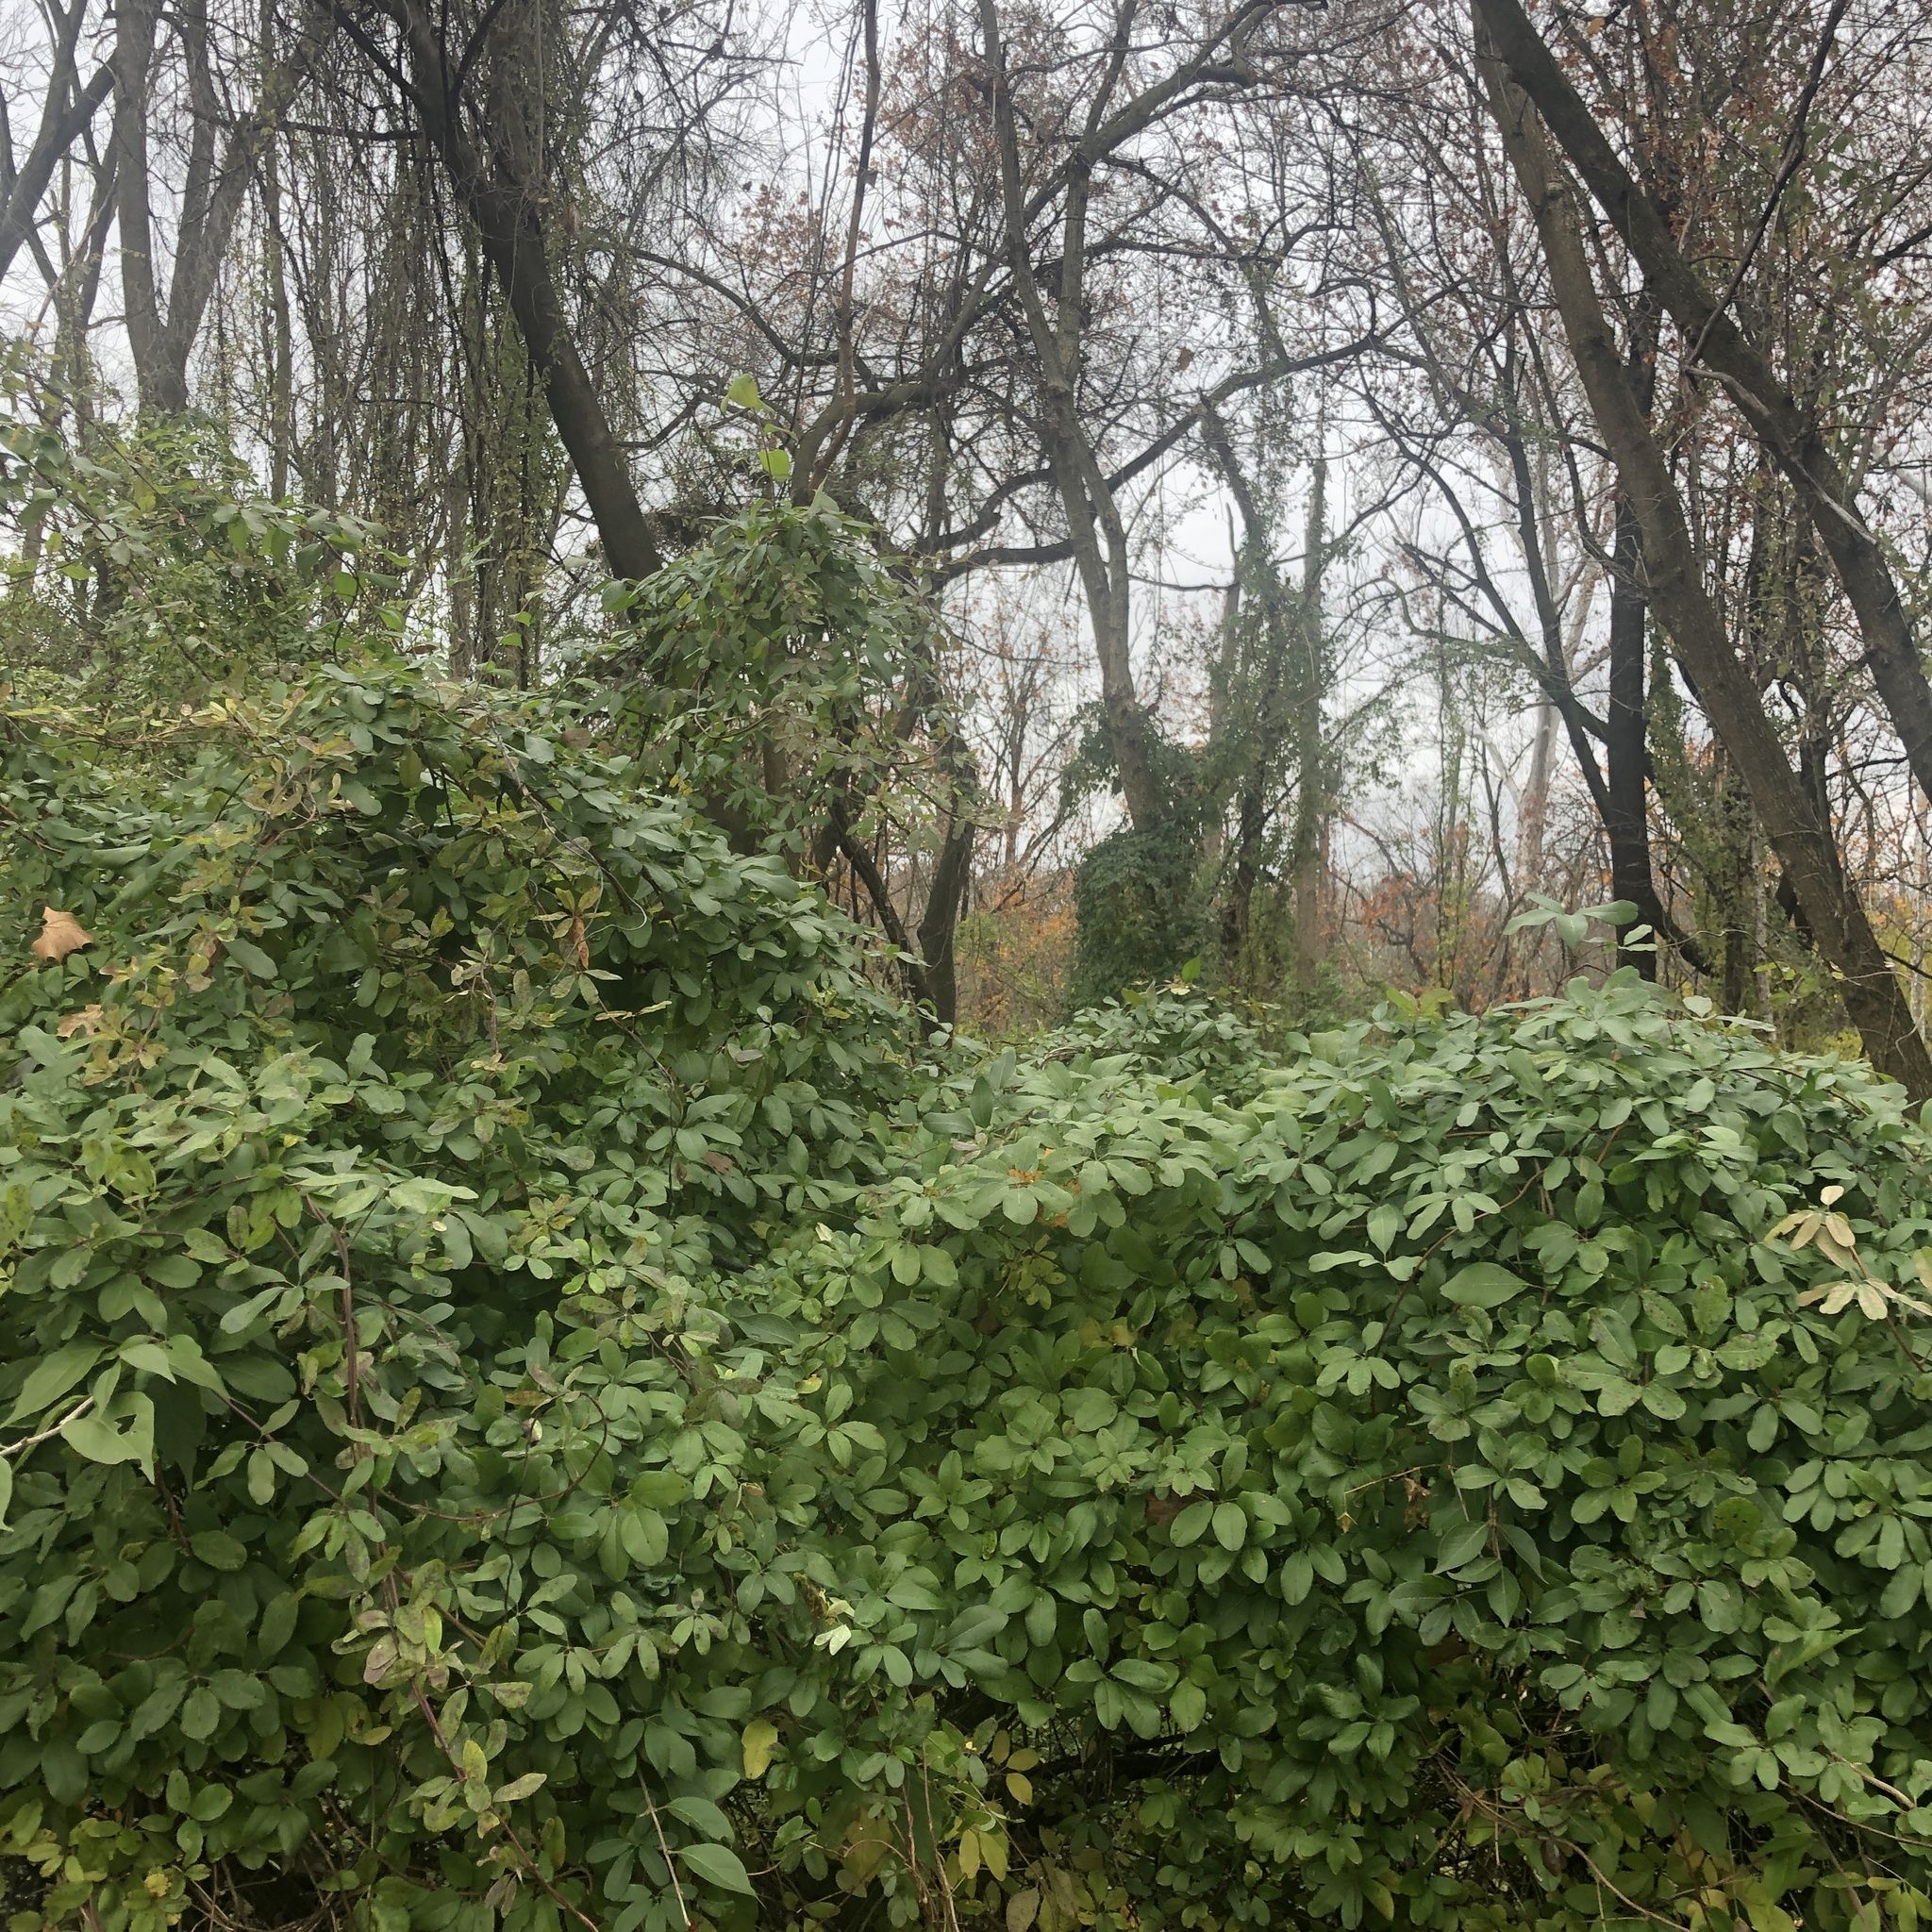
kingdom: Plantae
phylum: Tracheophyta
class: Magnoliopsida
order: Ranunculales
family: Lardizabalaceae
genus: Akebia
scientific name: Akebia quinata
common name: Five-leaf akebia
